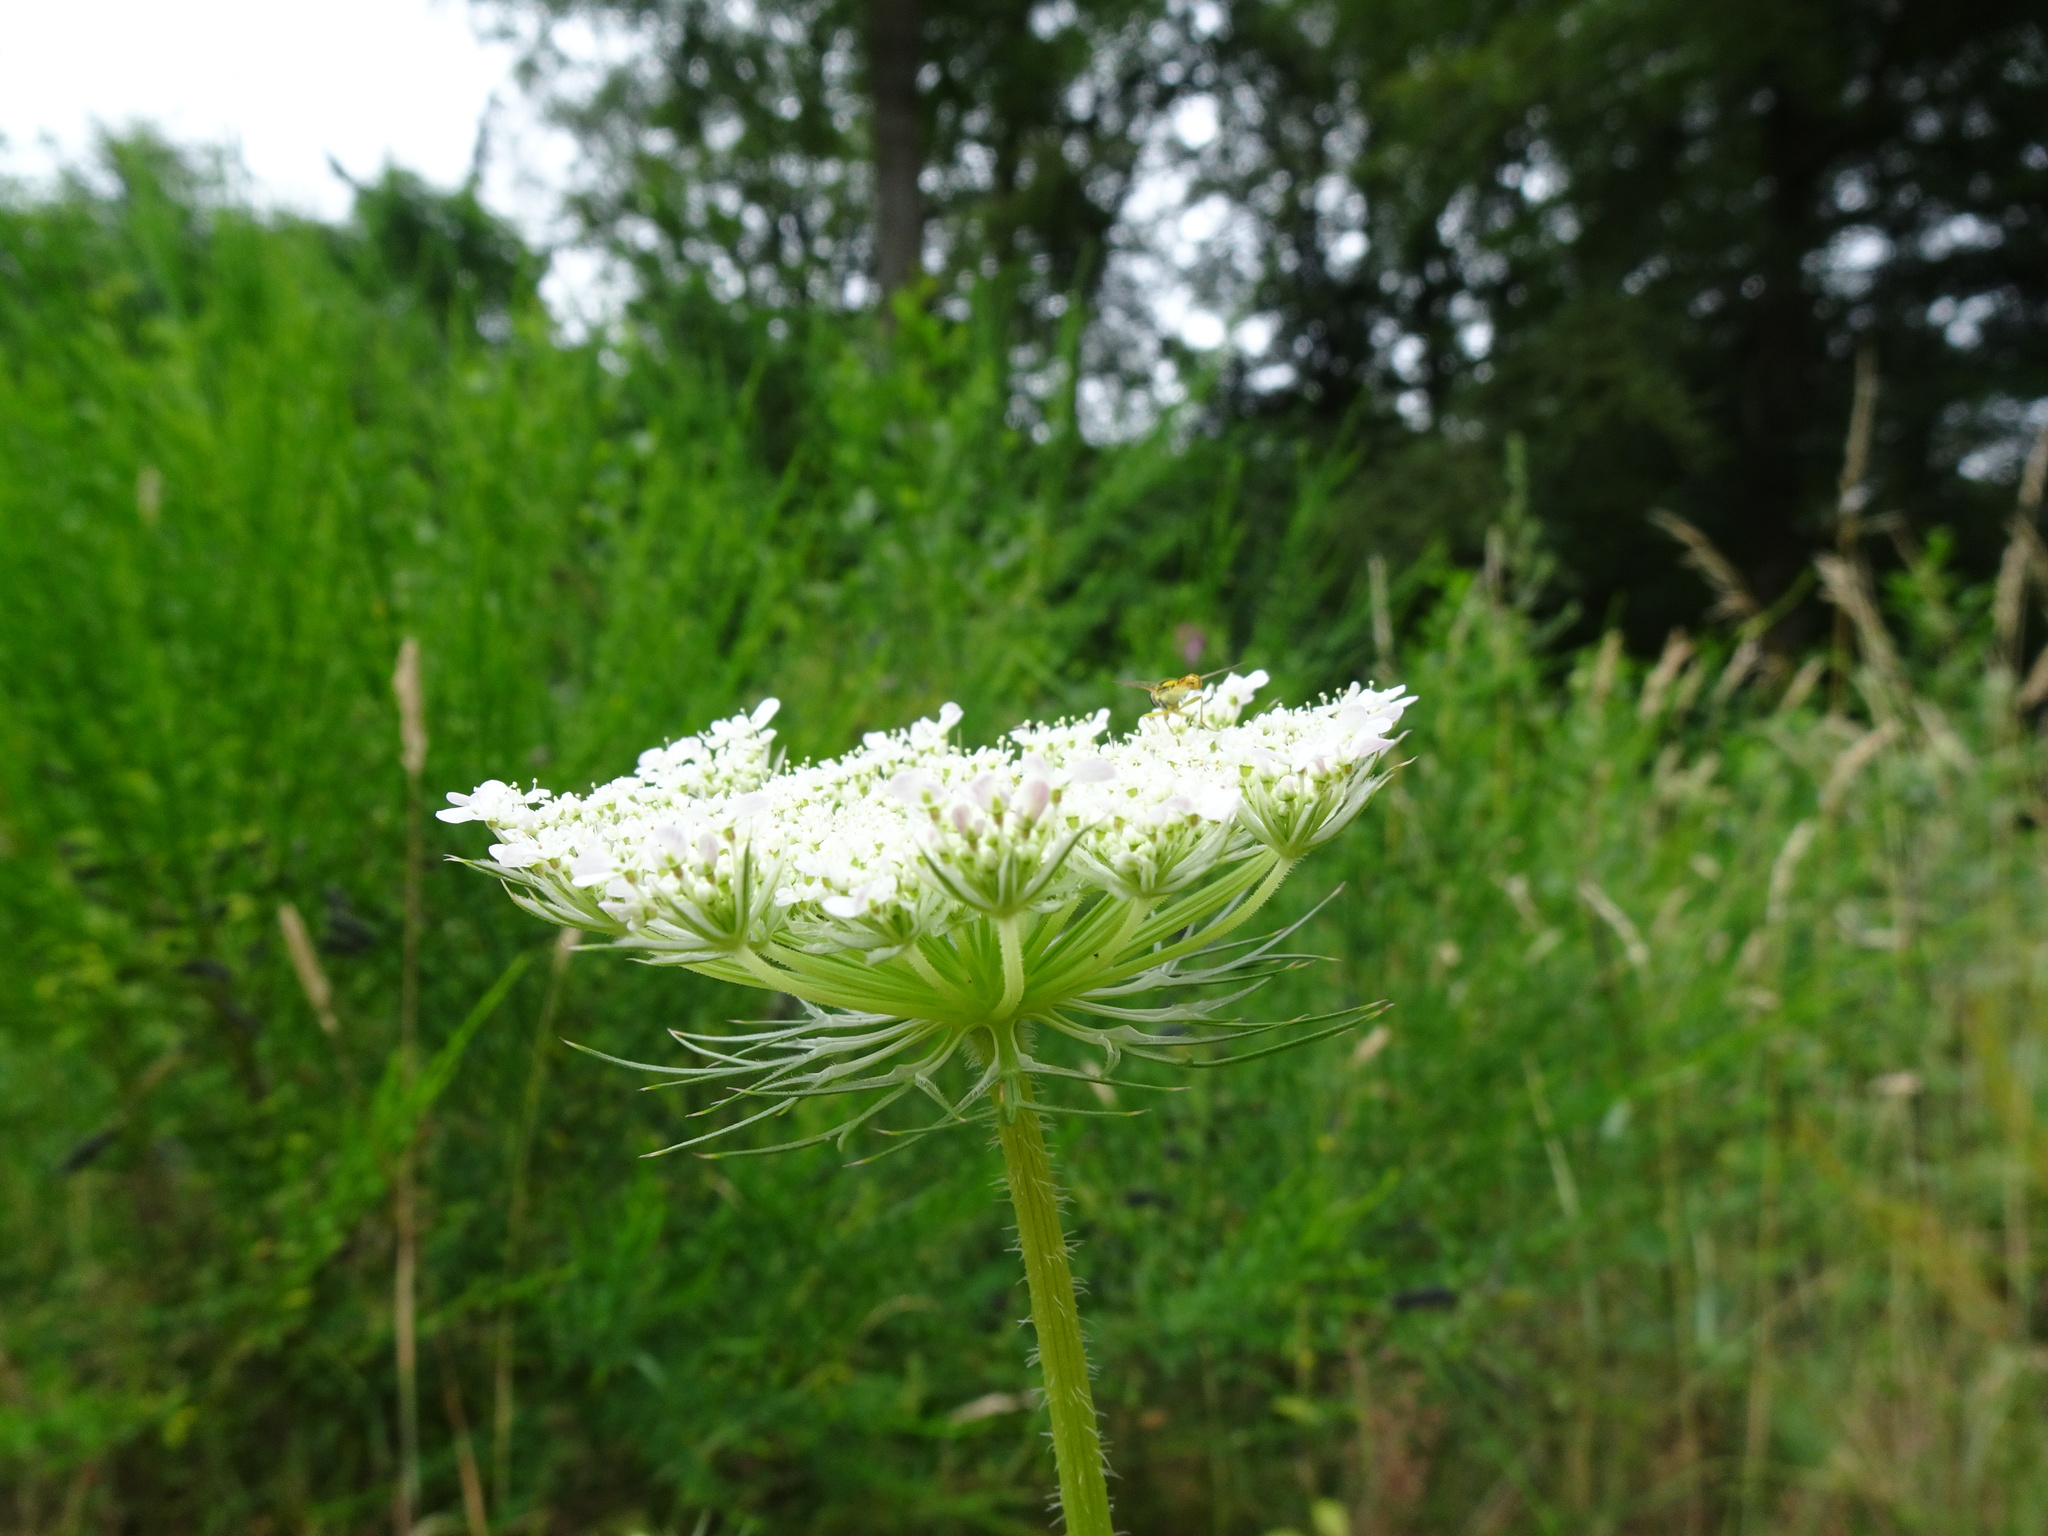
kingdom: Plantae
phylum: Tracheophyta
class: Magnoliopsida
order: Apiales
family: Apiaceae
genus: Daucus
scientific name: Daucus carota
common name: Wild carrot
